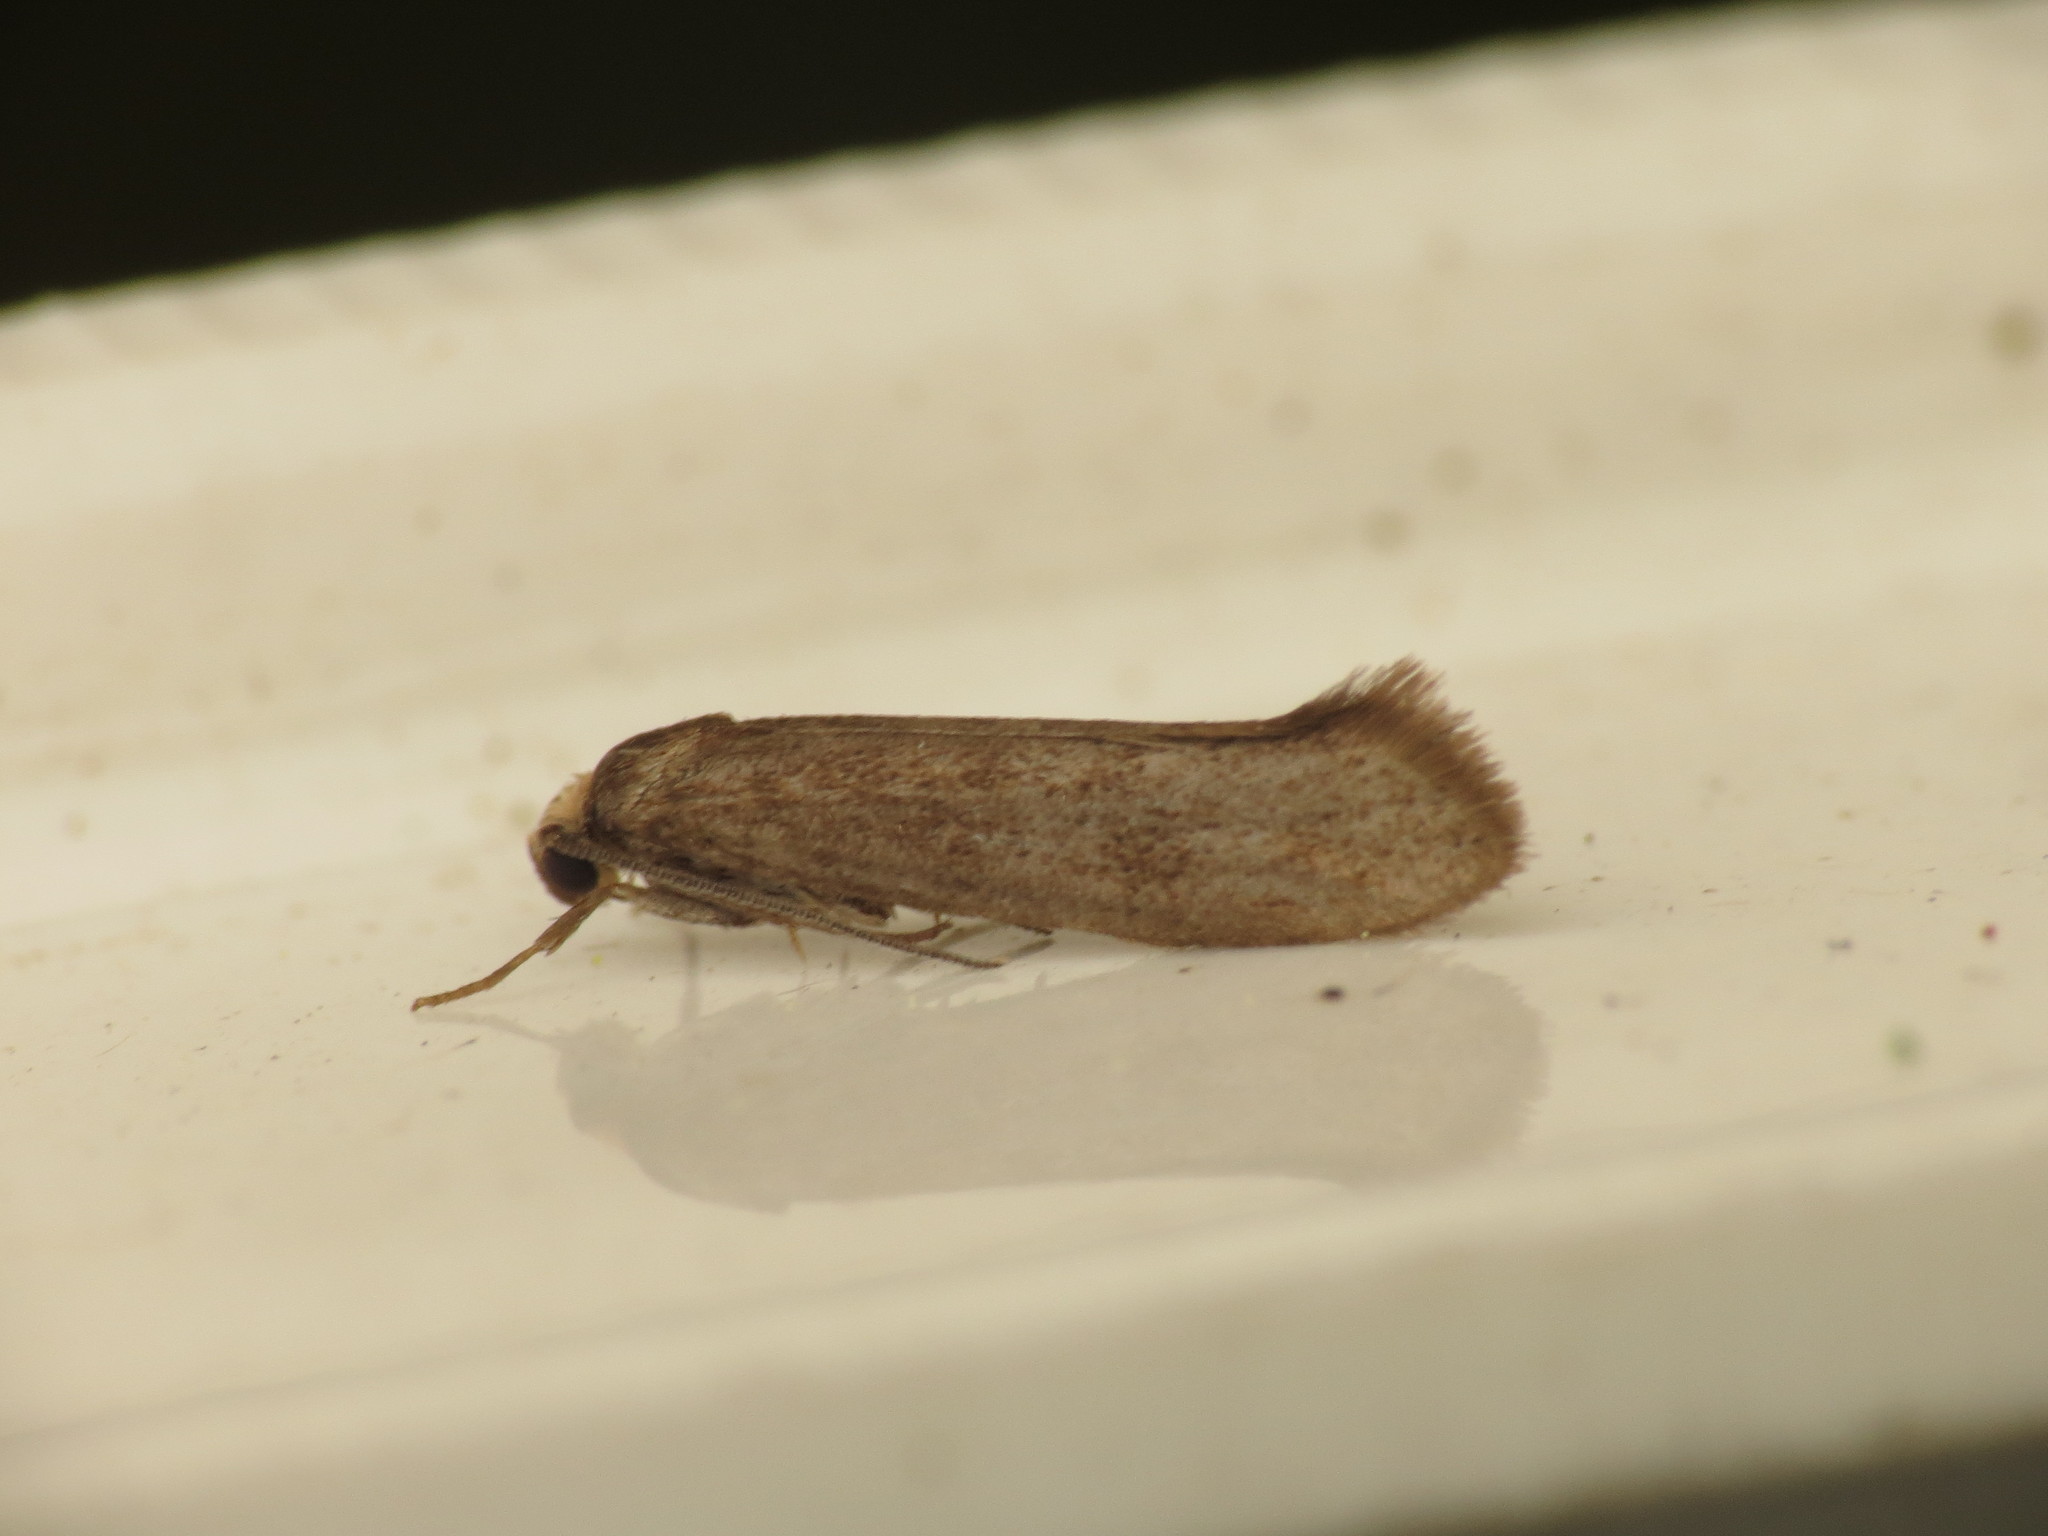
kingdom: Animalia
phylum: Arthropoda
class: Insecta
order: Lepidoptera
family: Praydidae
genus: Prays
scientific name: Prays curtisella
